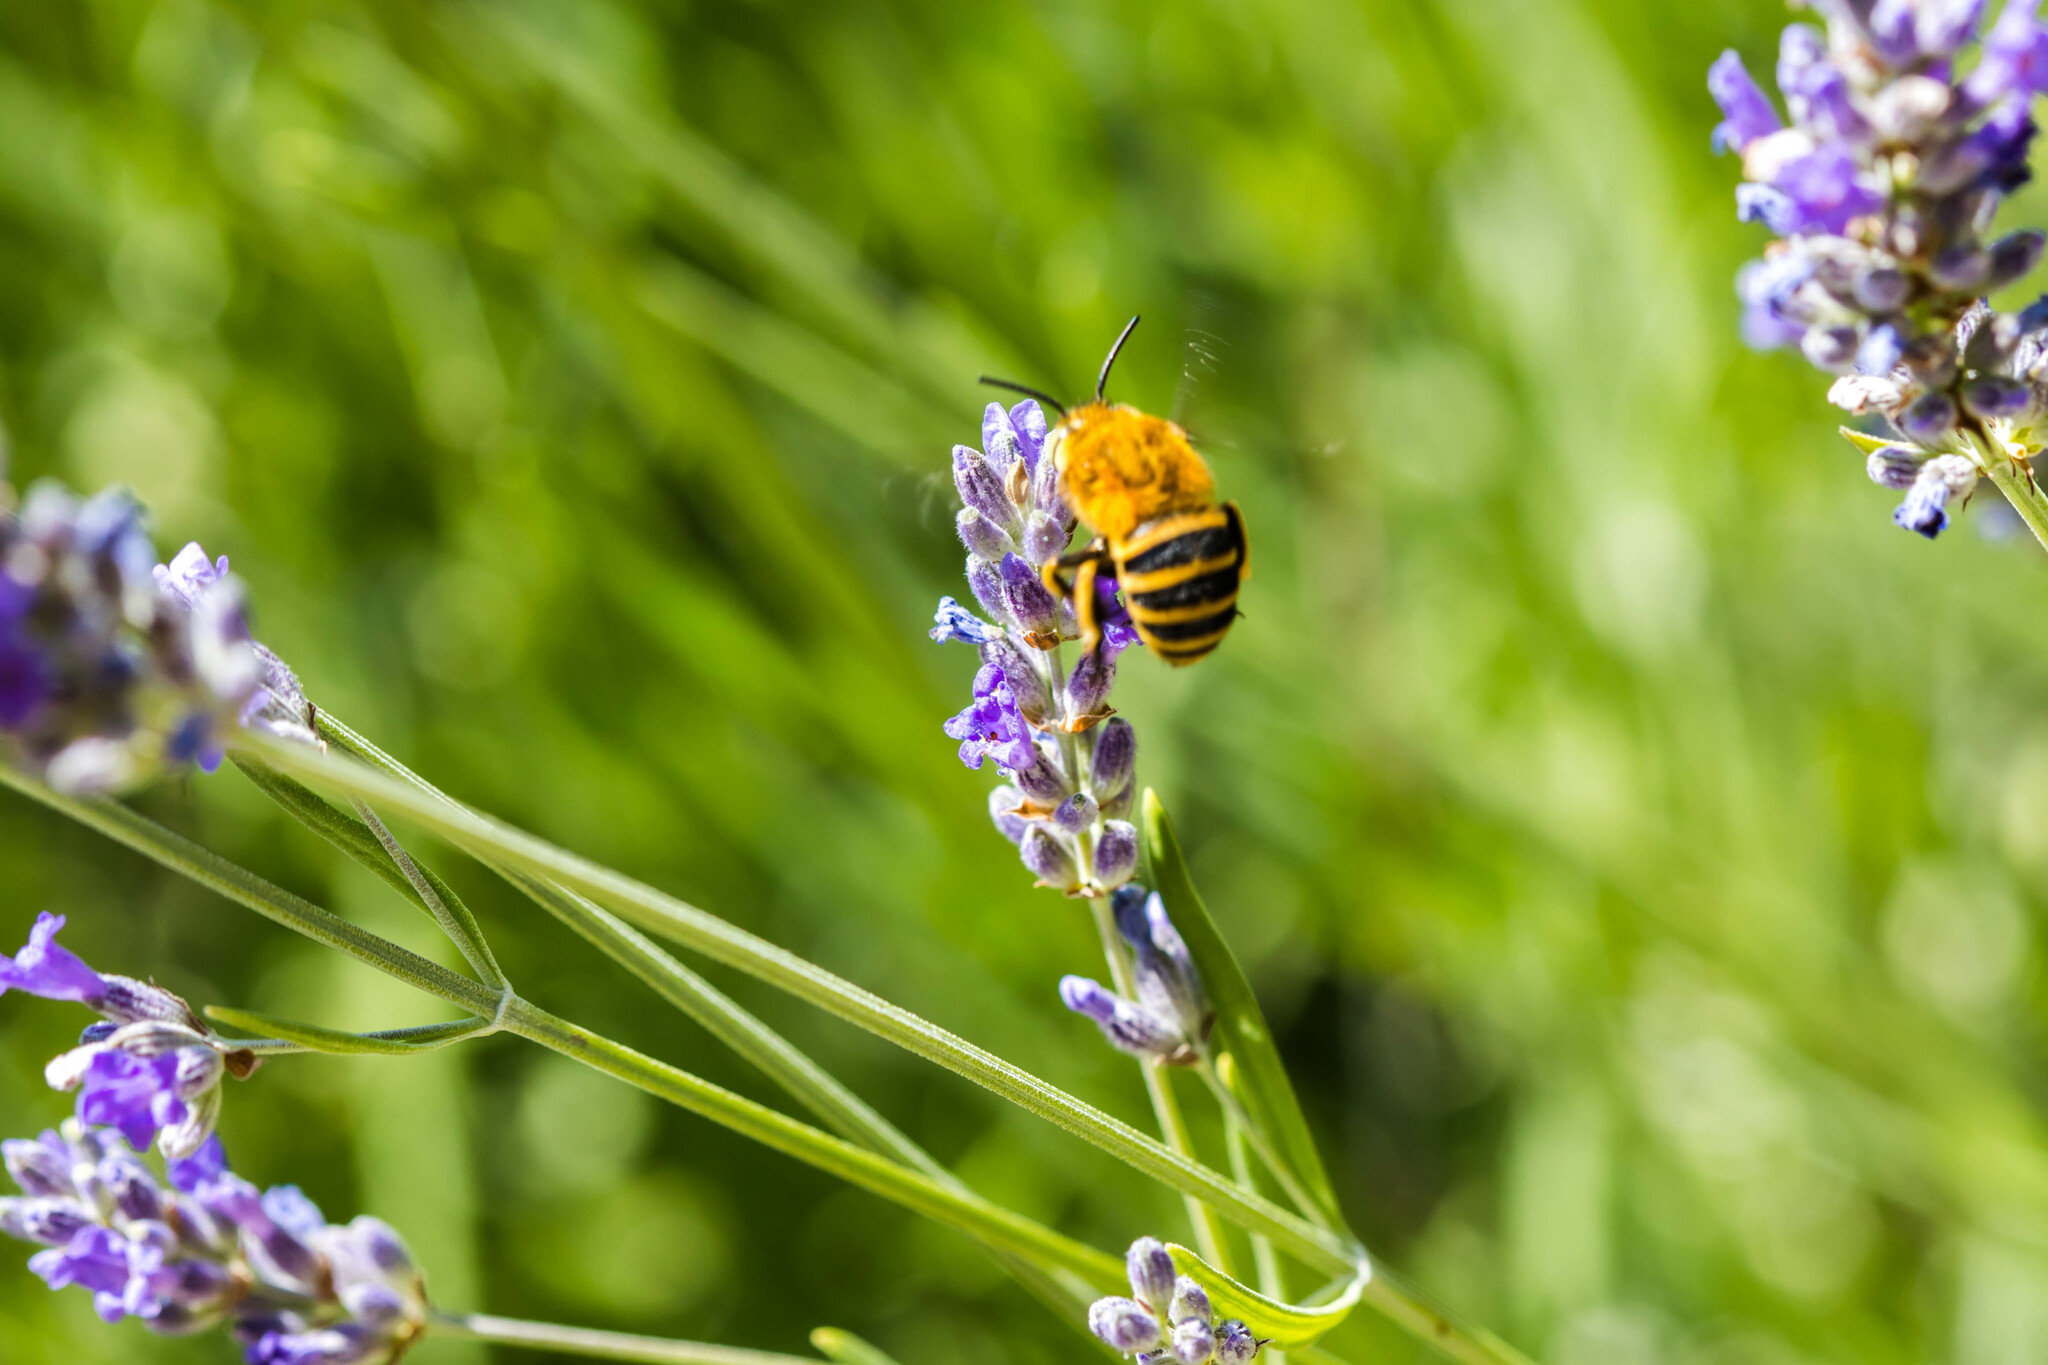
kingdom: Animalia
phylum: Arthropoda
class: Insecta
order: Hymenoptera
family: Apidae
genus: Amegilla
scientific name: Amegilla garrula
